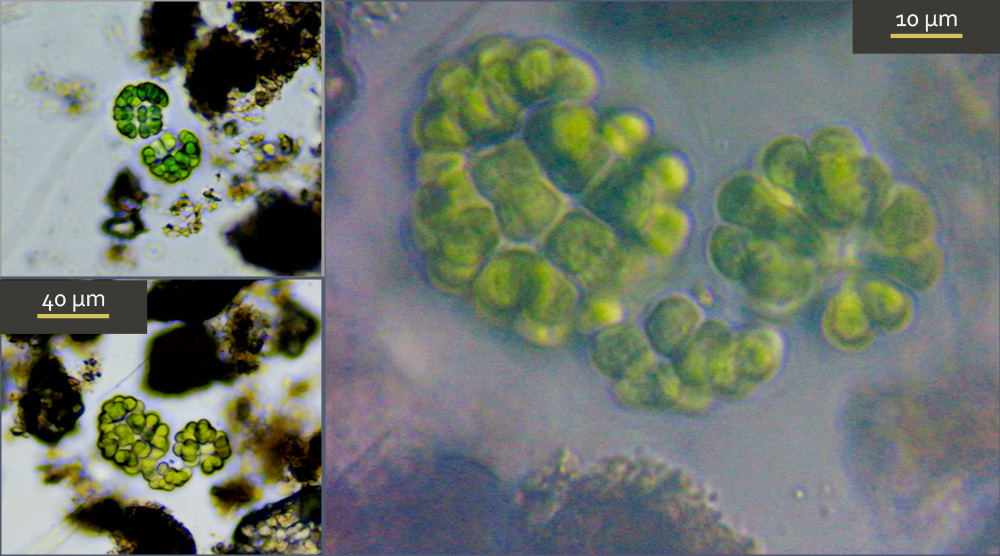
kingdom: Bacteria
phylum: Cyanobacteria
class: Cyanobacteriia
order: Cyanobacteriales
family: Gomphosphaeriaceae
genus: Gomphosphaeria
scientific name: Gomphosphaeria aponina
